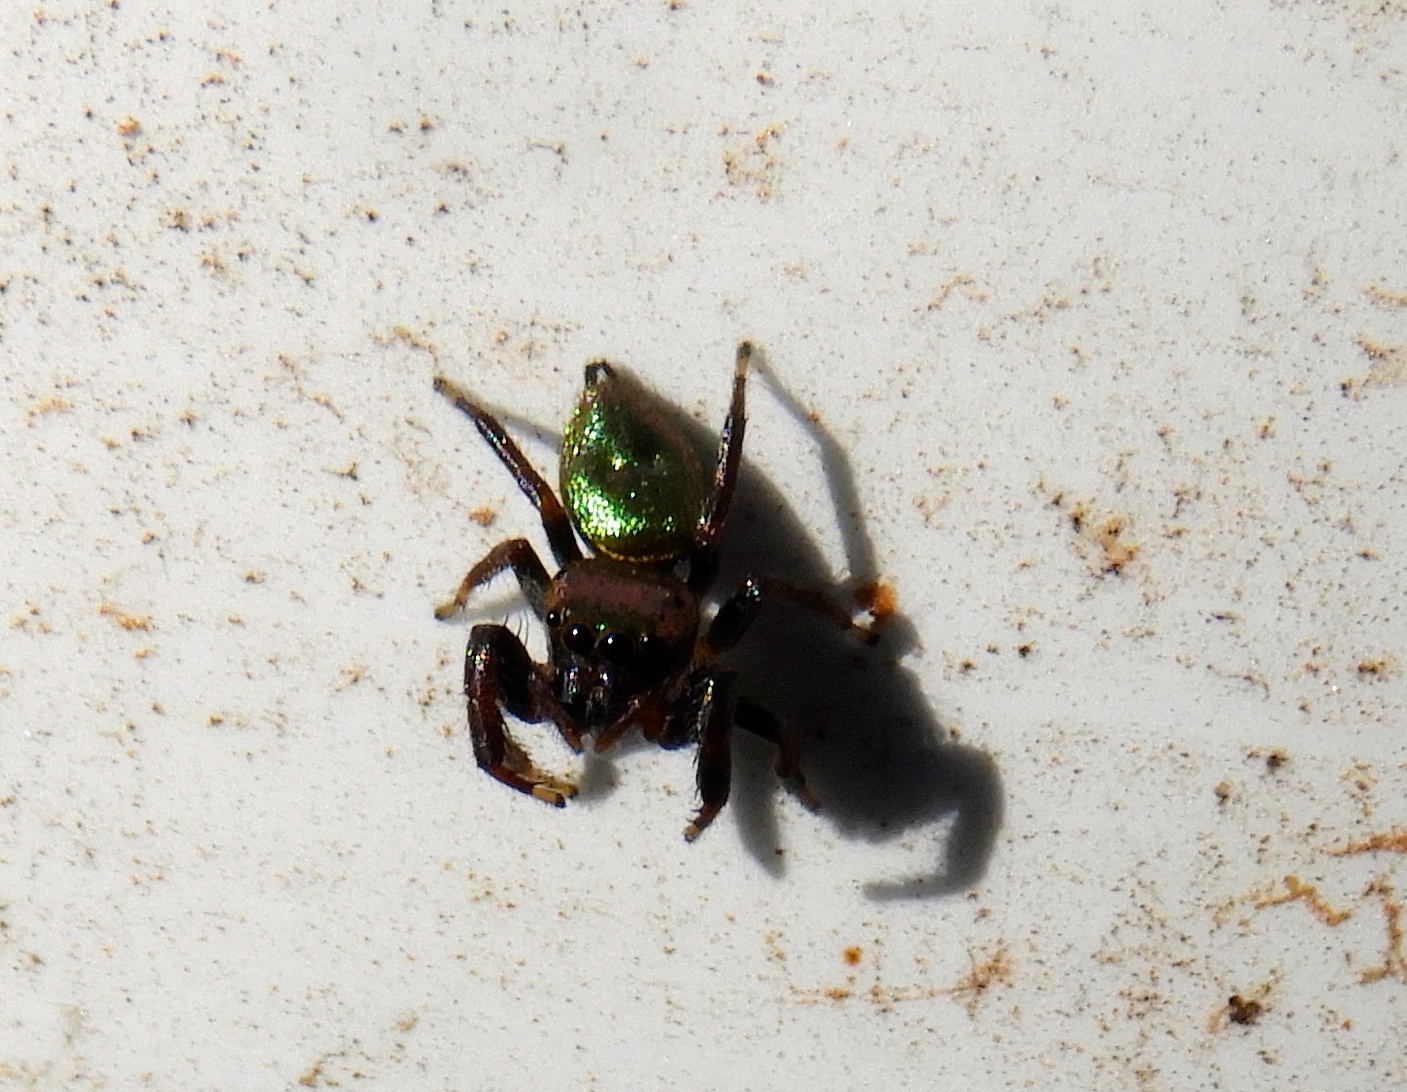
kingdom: Animalia
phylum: Arthropoda
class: Arachnida
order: Araneae
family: Salticidae
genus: Sassacus
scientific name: Sassacus
